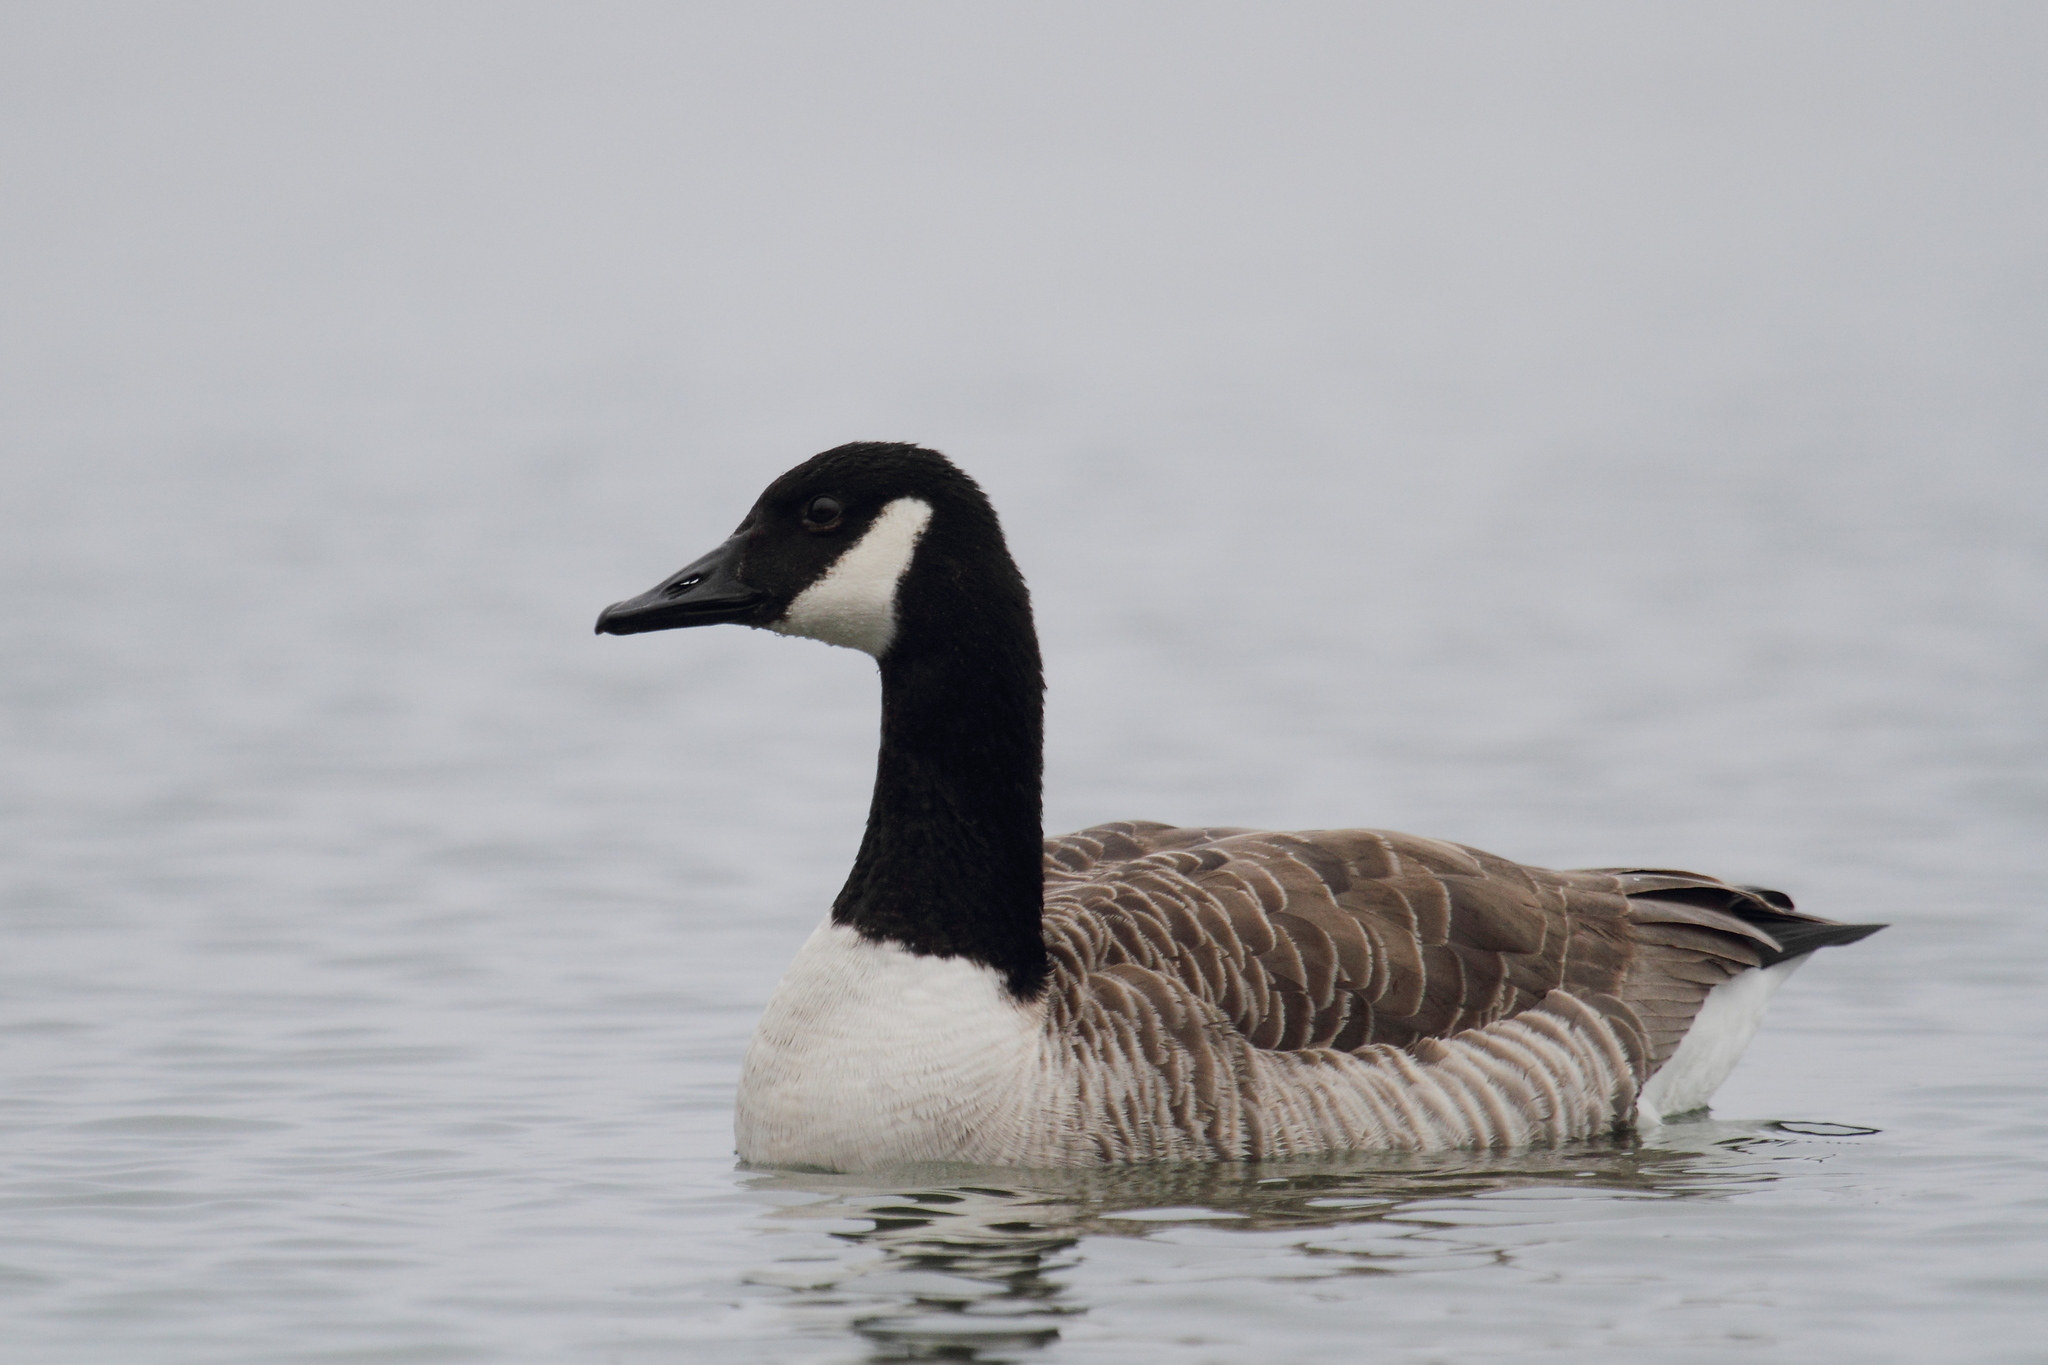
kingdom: Animalia
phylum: Chordata
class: Aves
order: Anseriformes
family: Anatidae
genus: Branta
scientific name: Branta canadensis
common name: Canada goose
